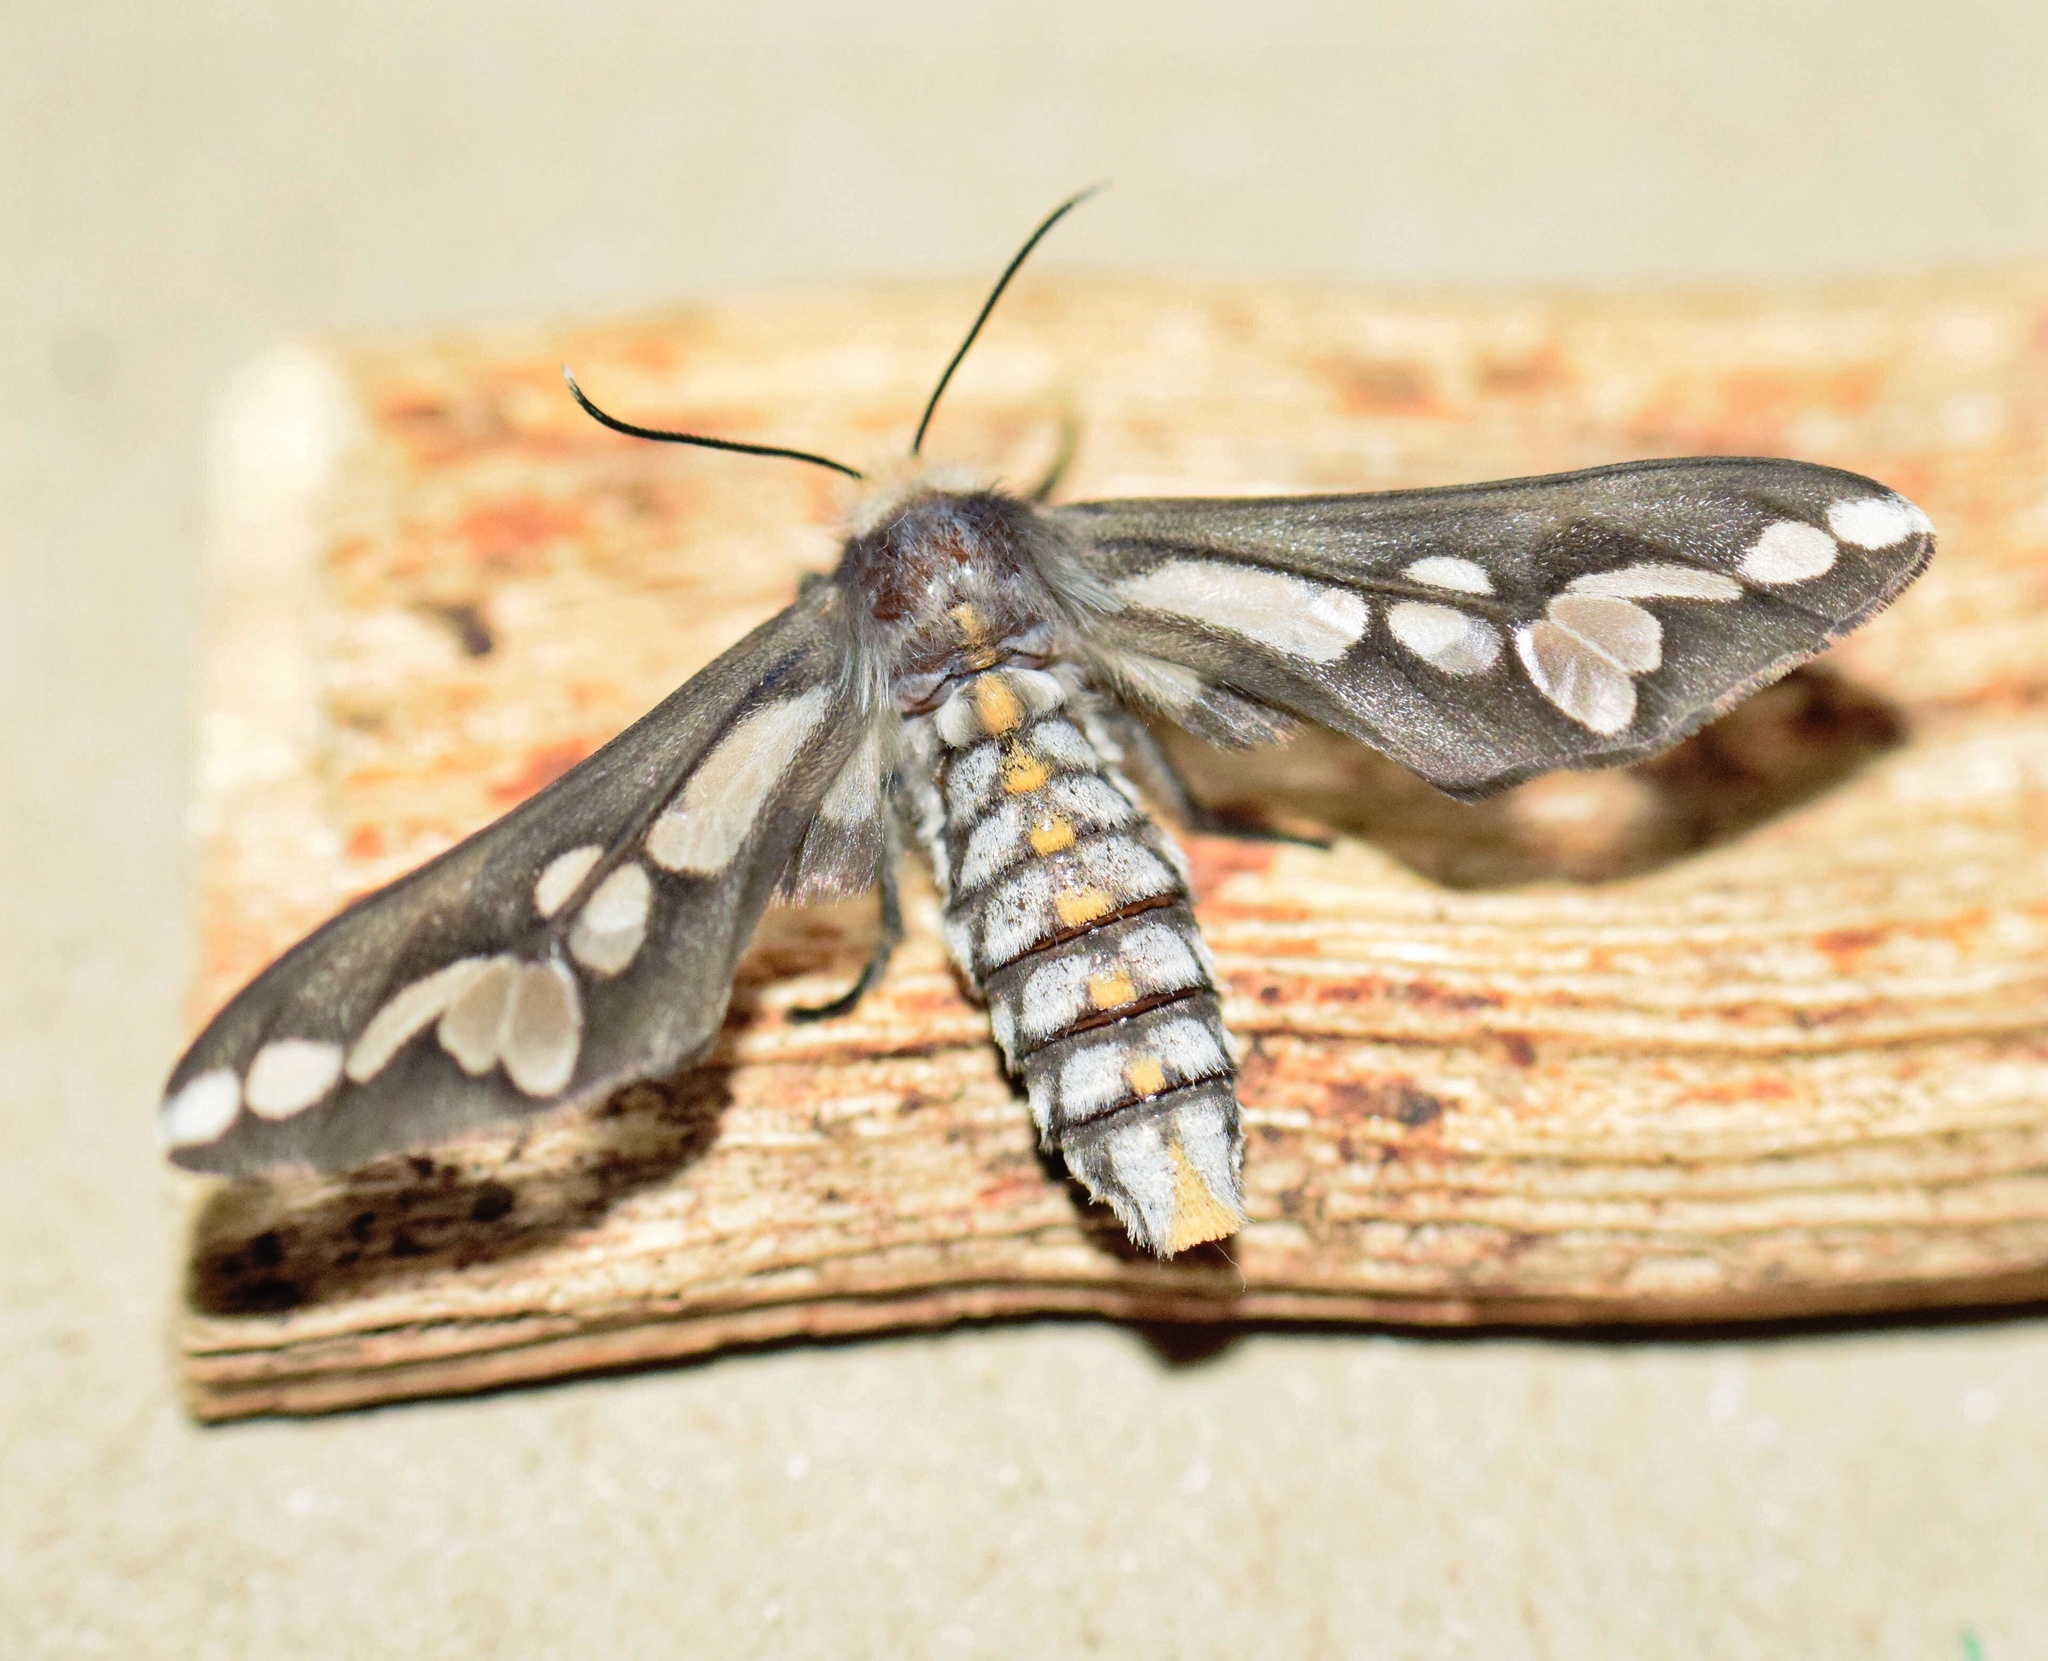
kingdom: Animalia
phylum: Arthropoda
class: Insecta
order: Lepidoptera
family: Erebidae
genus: Thyretes
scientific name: Thyretes caffra
